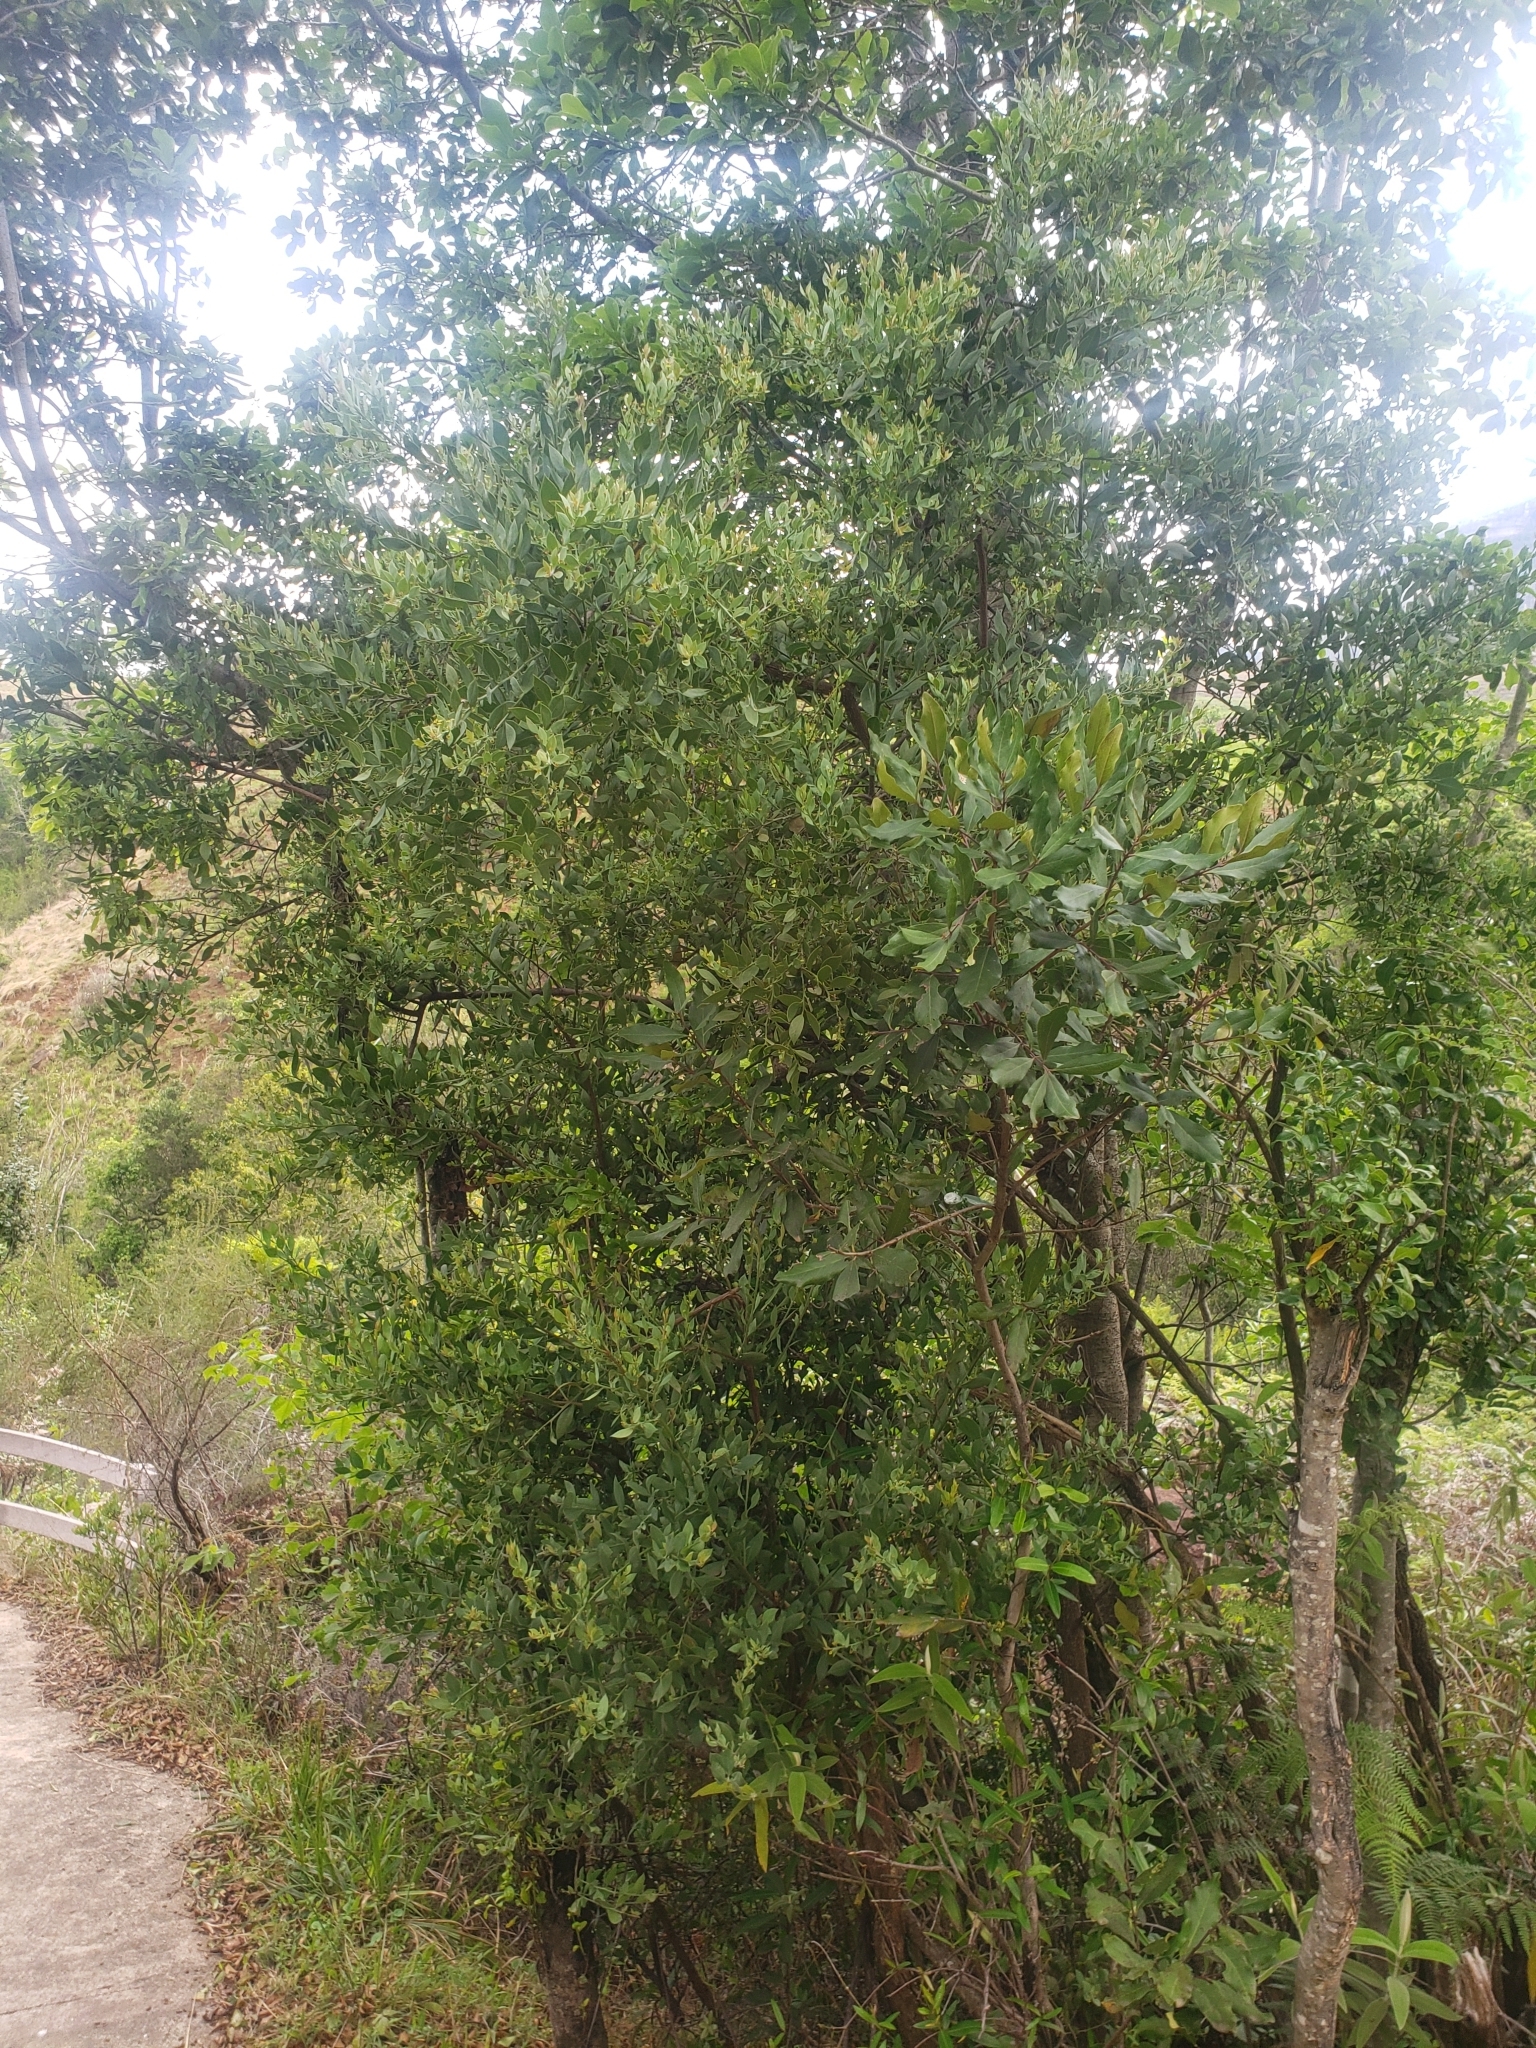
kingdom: Plantae
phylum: Tracheophyta
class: Magnoliopsida
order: Santalales
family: Santalaceae
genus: Osyris
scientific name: Osyris lanceolata
